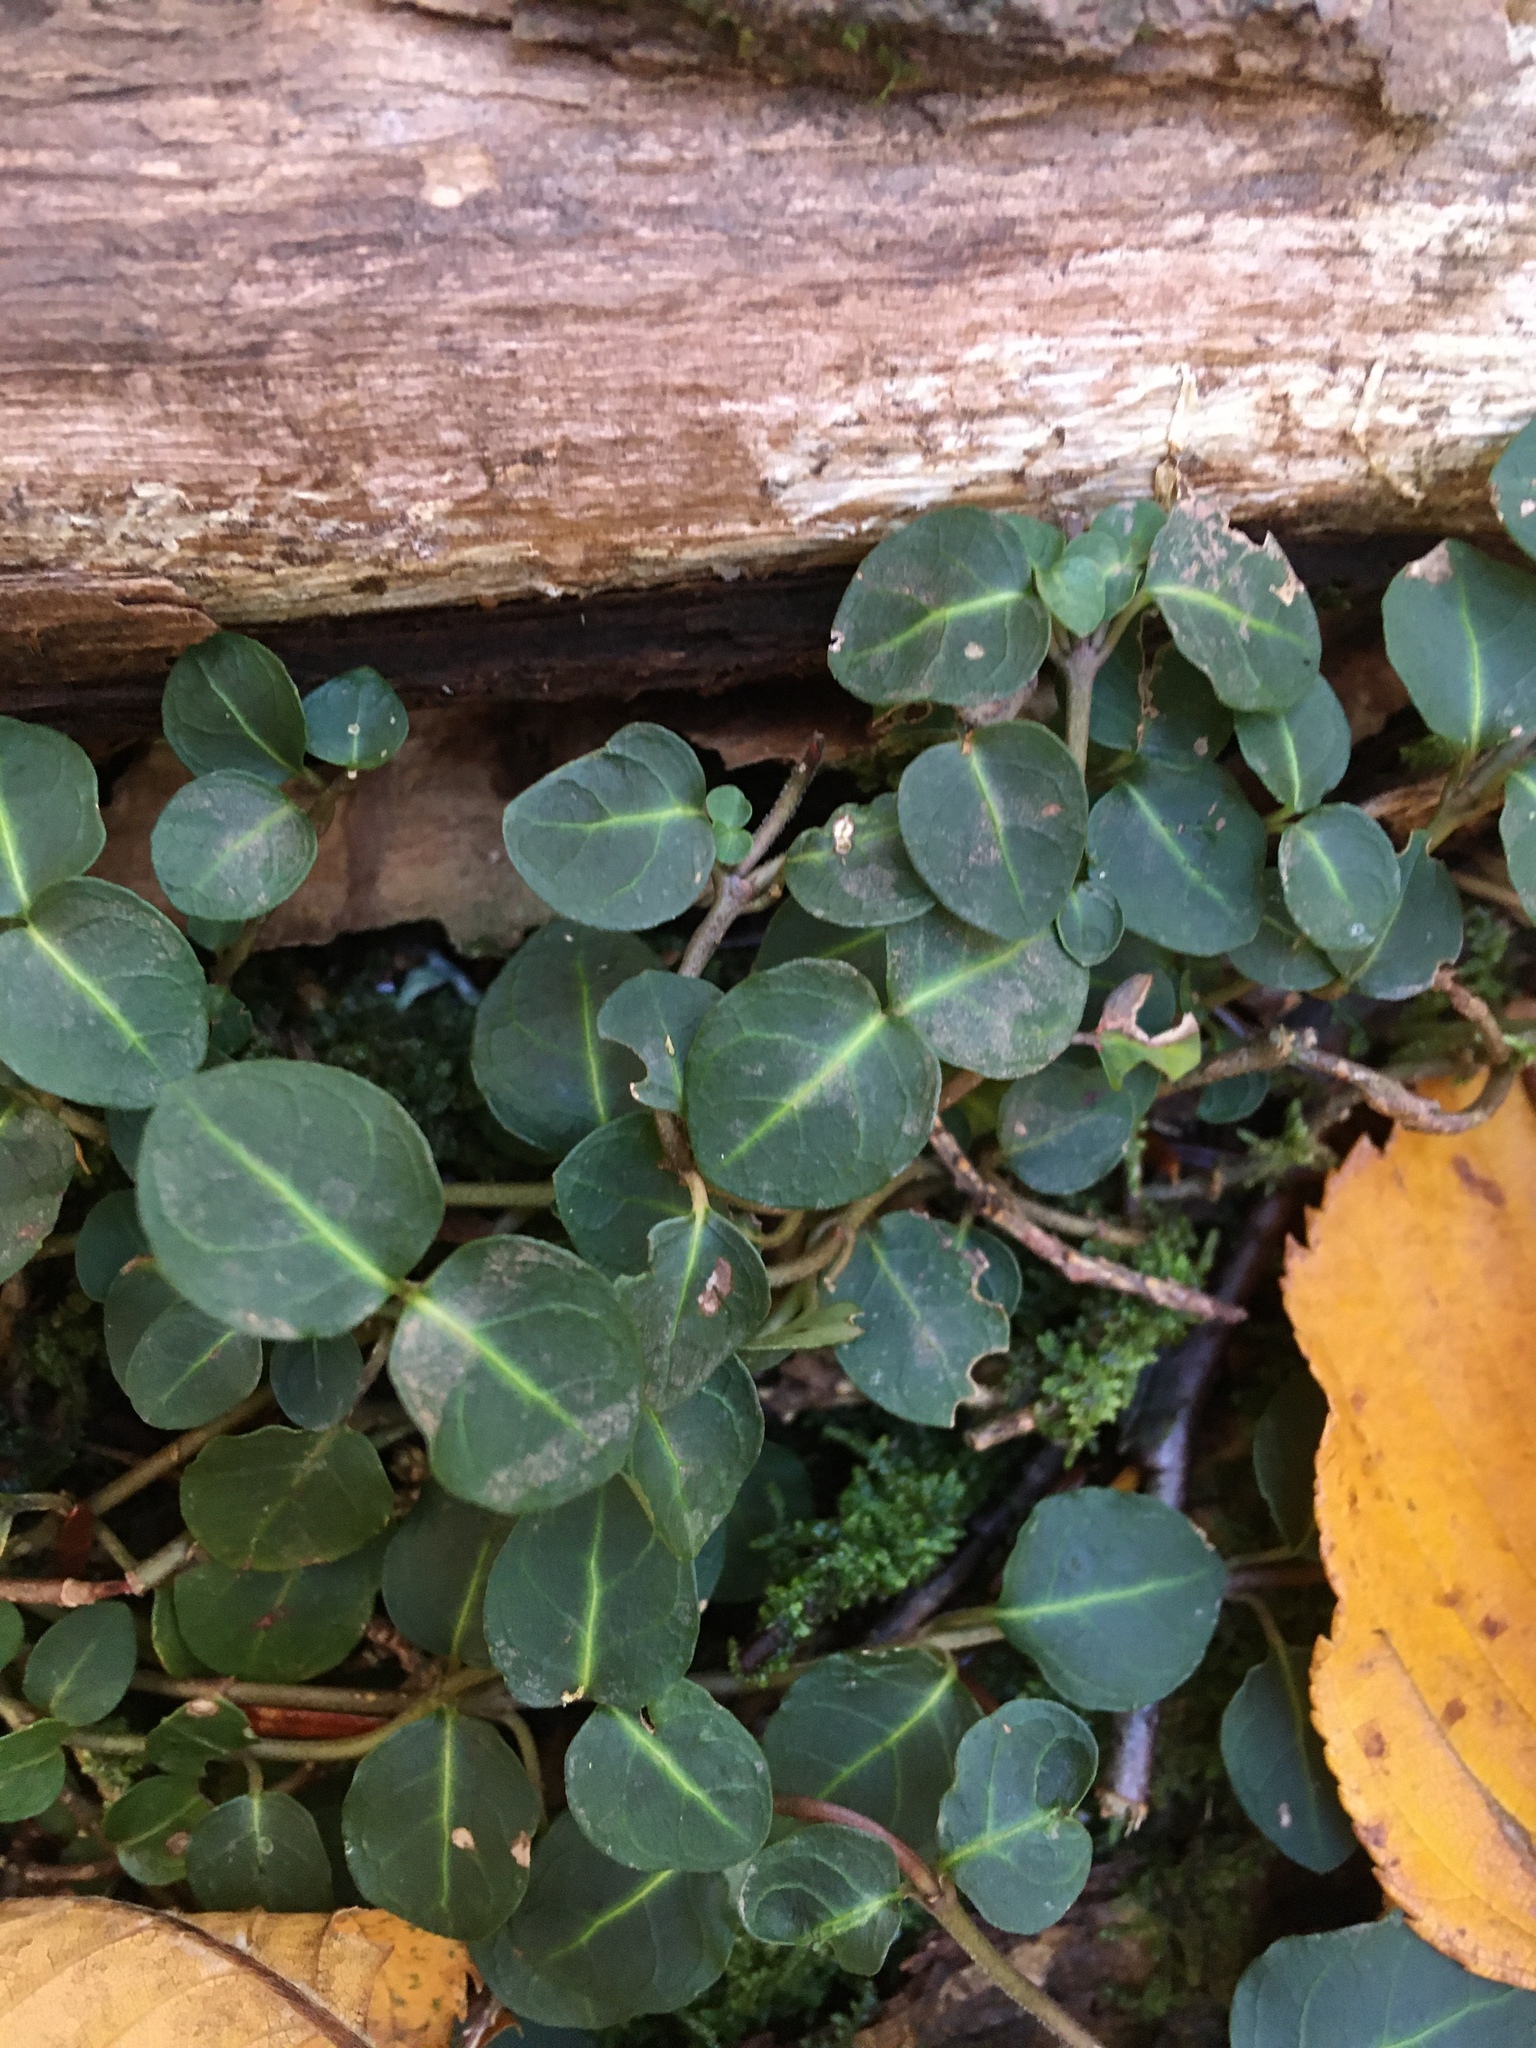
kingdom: Plantae
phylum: Tracheophyta
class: Magnoliopsida
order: Gentianales
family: Rubiaceae
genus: Mitchella
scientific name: Mitchella repens
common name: Partridge-berry
